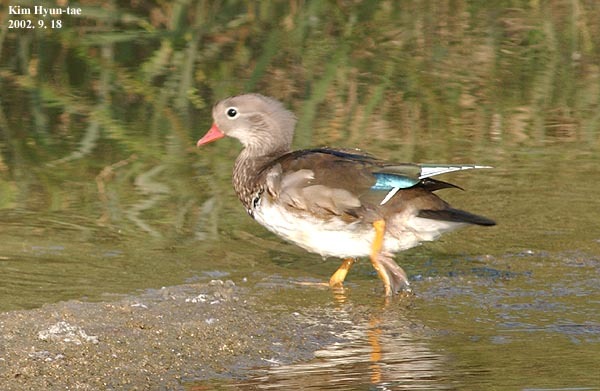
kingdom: Animalia
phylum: Chordata
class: Aves
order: Anseriformes
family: Anatidae
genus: Aix
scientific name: Aix galericulata
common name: Mandarin duck
